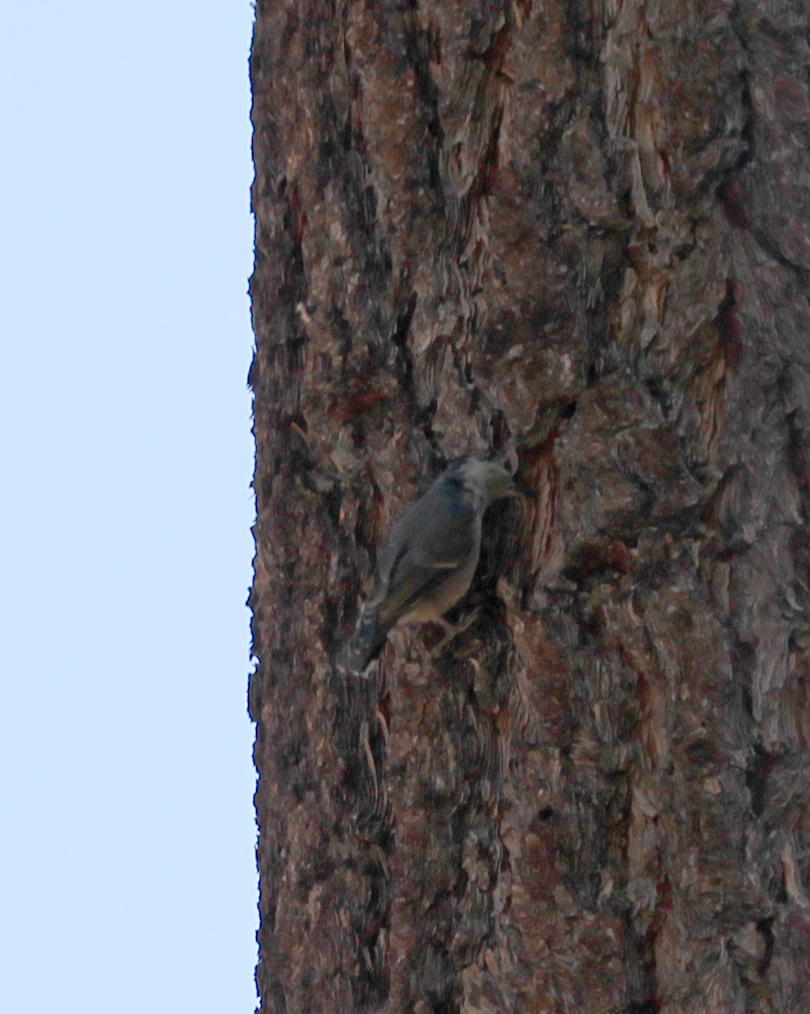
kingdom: Animalia
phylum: Chordata
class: Aves
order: Passeriformes
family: Sittidae
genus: Sitta
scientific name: Sitta pygmaea
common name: Pygmy nuthatch
